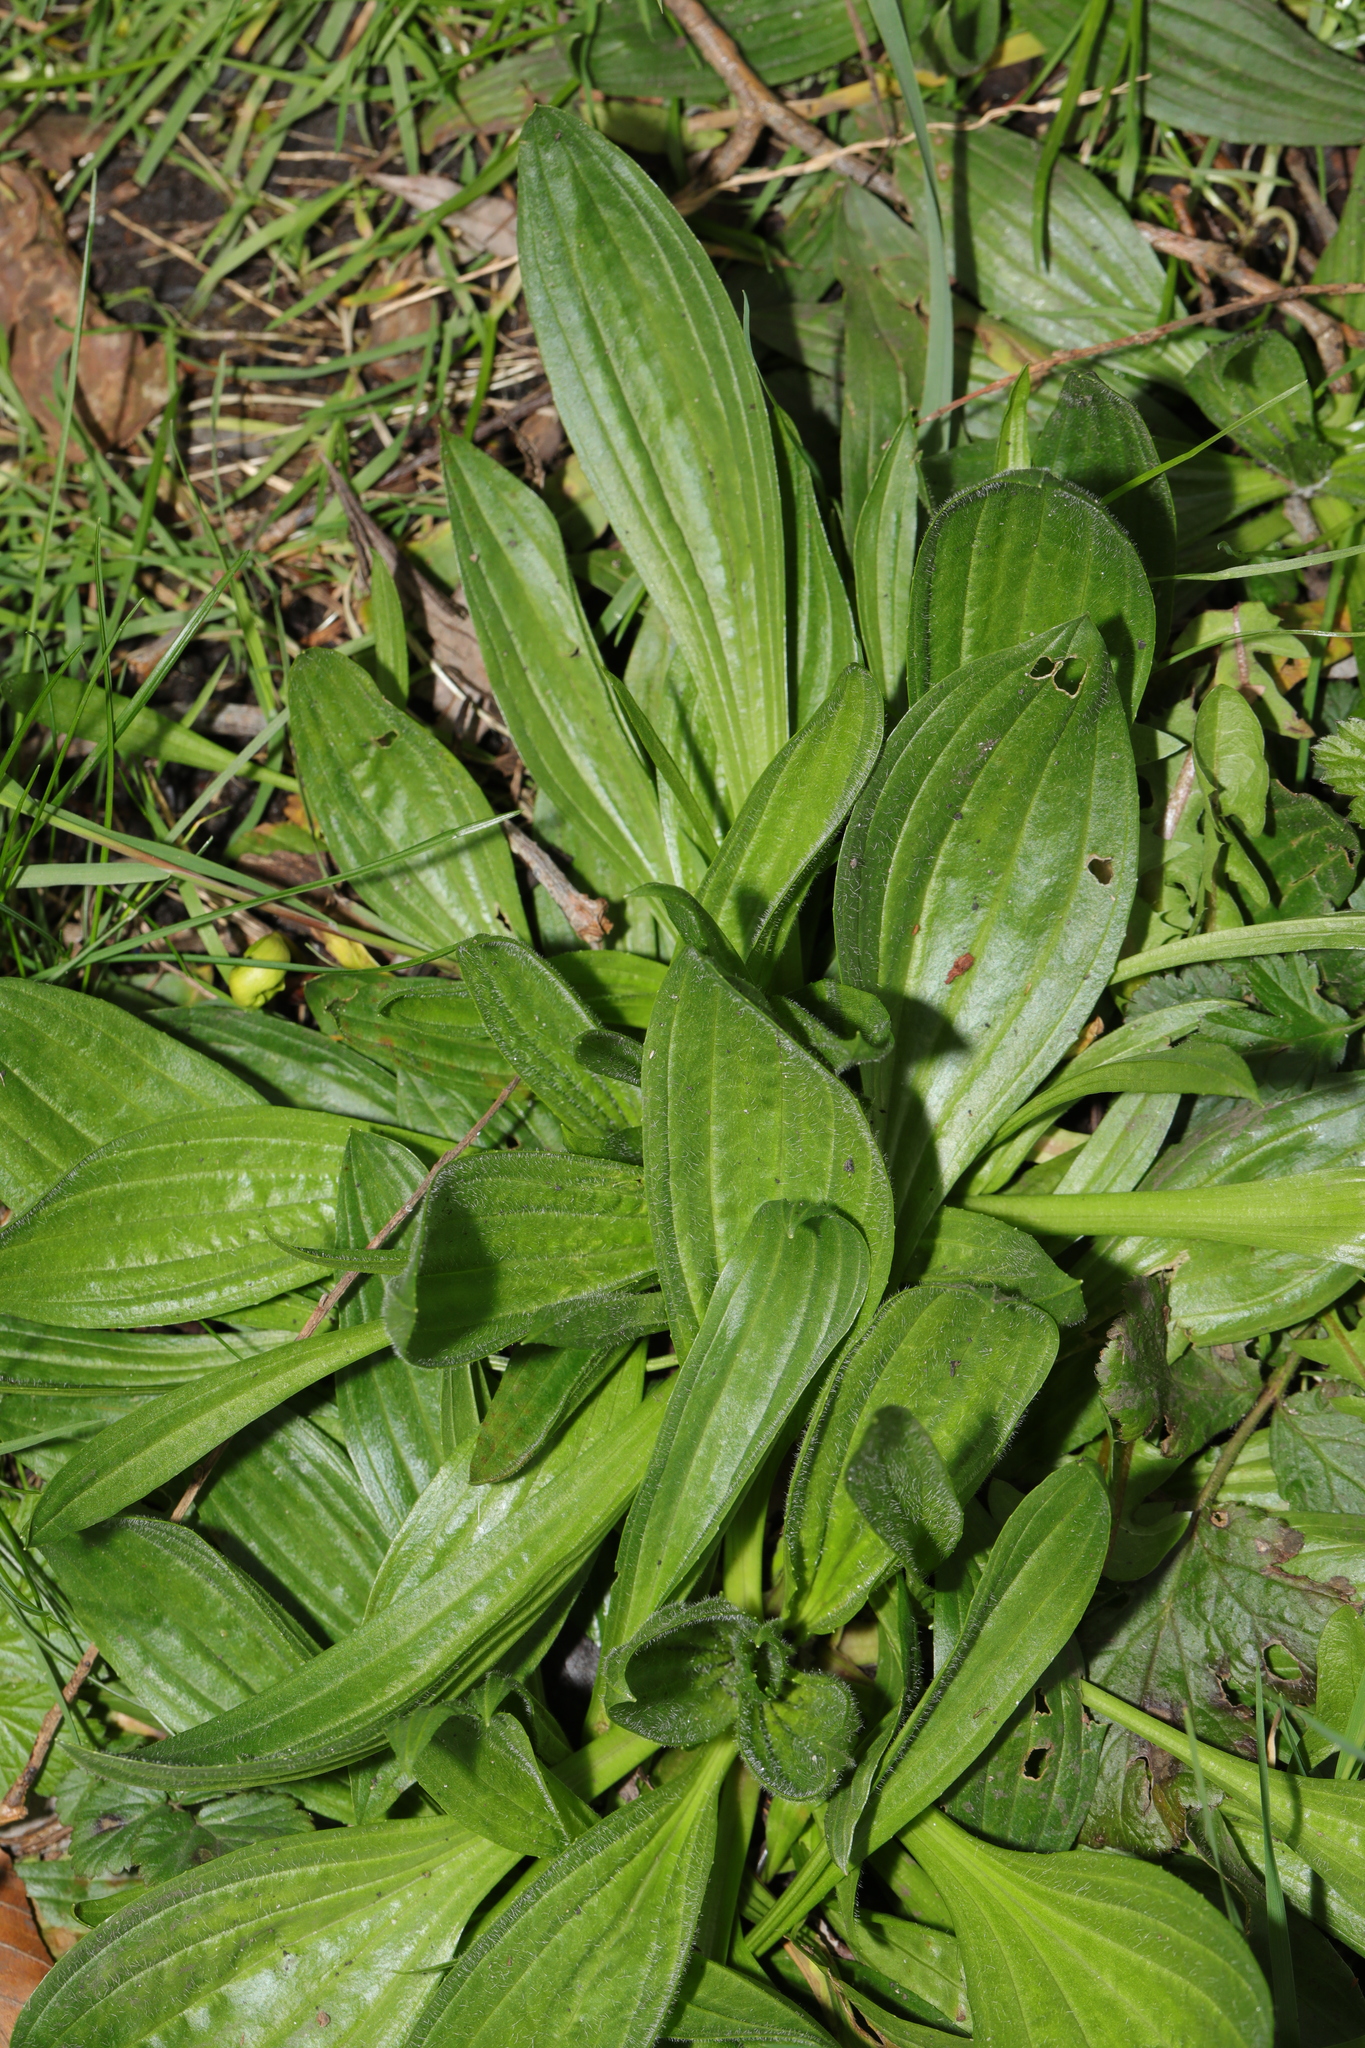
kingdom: Plantae
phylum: Tracheophyta
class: Magnoliopsida
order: Lamiales
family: Plantaginaceae
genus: Plantago
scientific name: Plantago lanceolata
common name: Ribwort plantain
